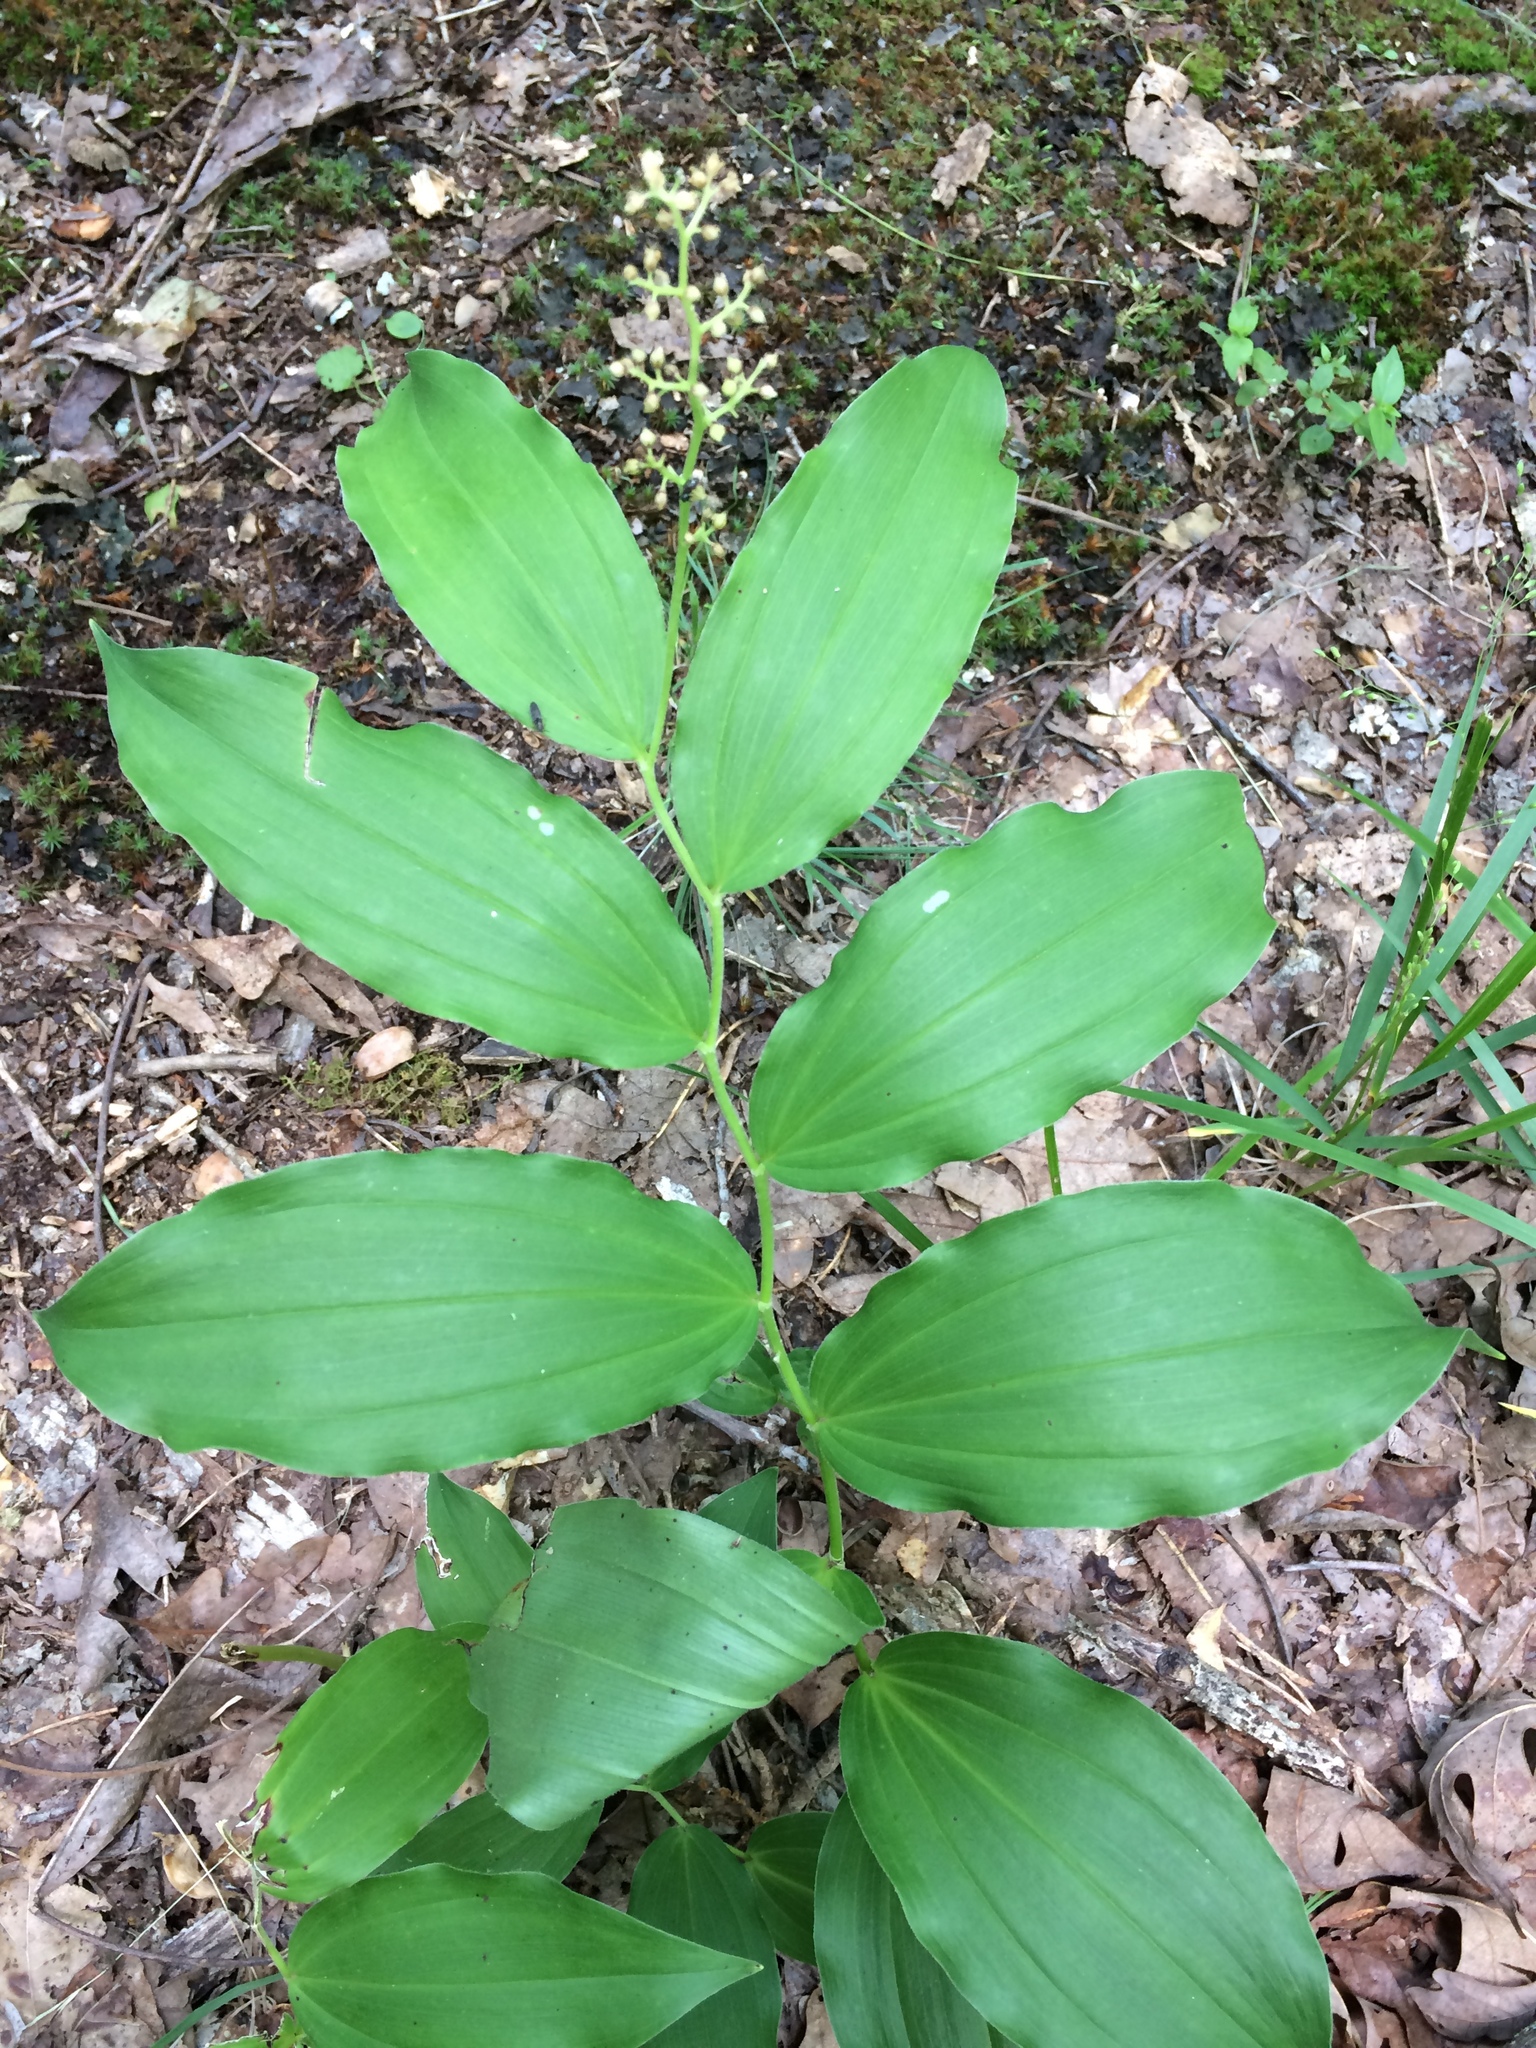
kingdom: Plantae
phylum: Tracheophyta
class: Liliopsida
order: Asparagales
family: Asparagaceae
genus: Maianthemum
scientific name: Maianthemum racemosum
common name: False spikenard
